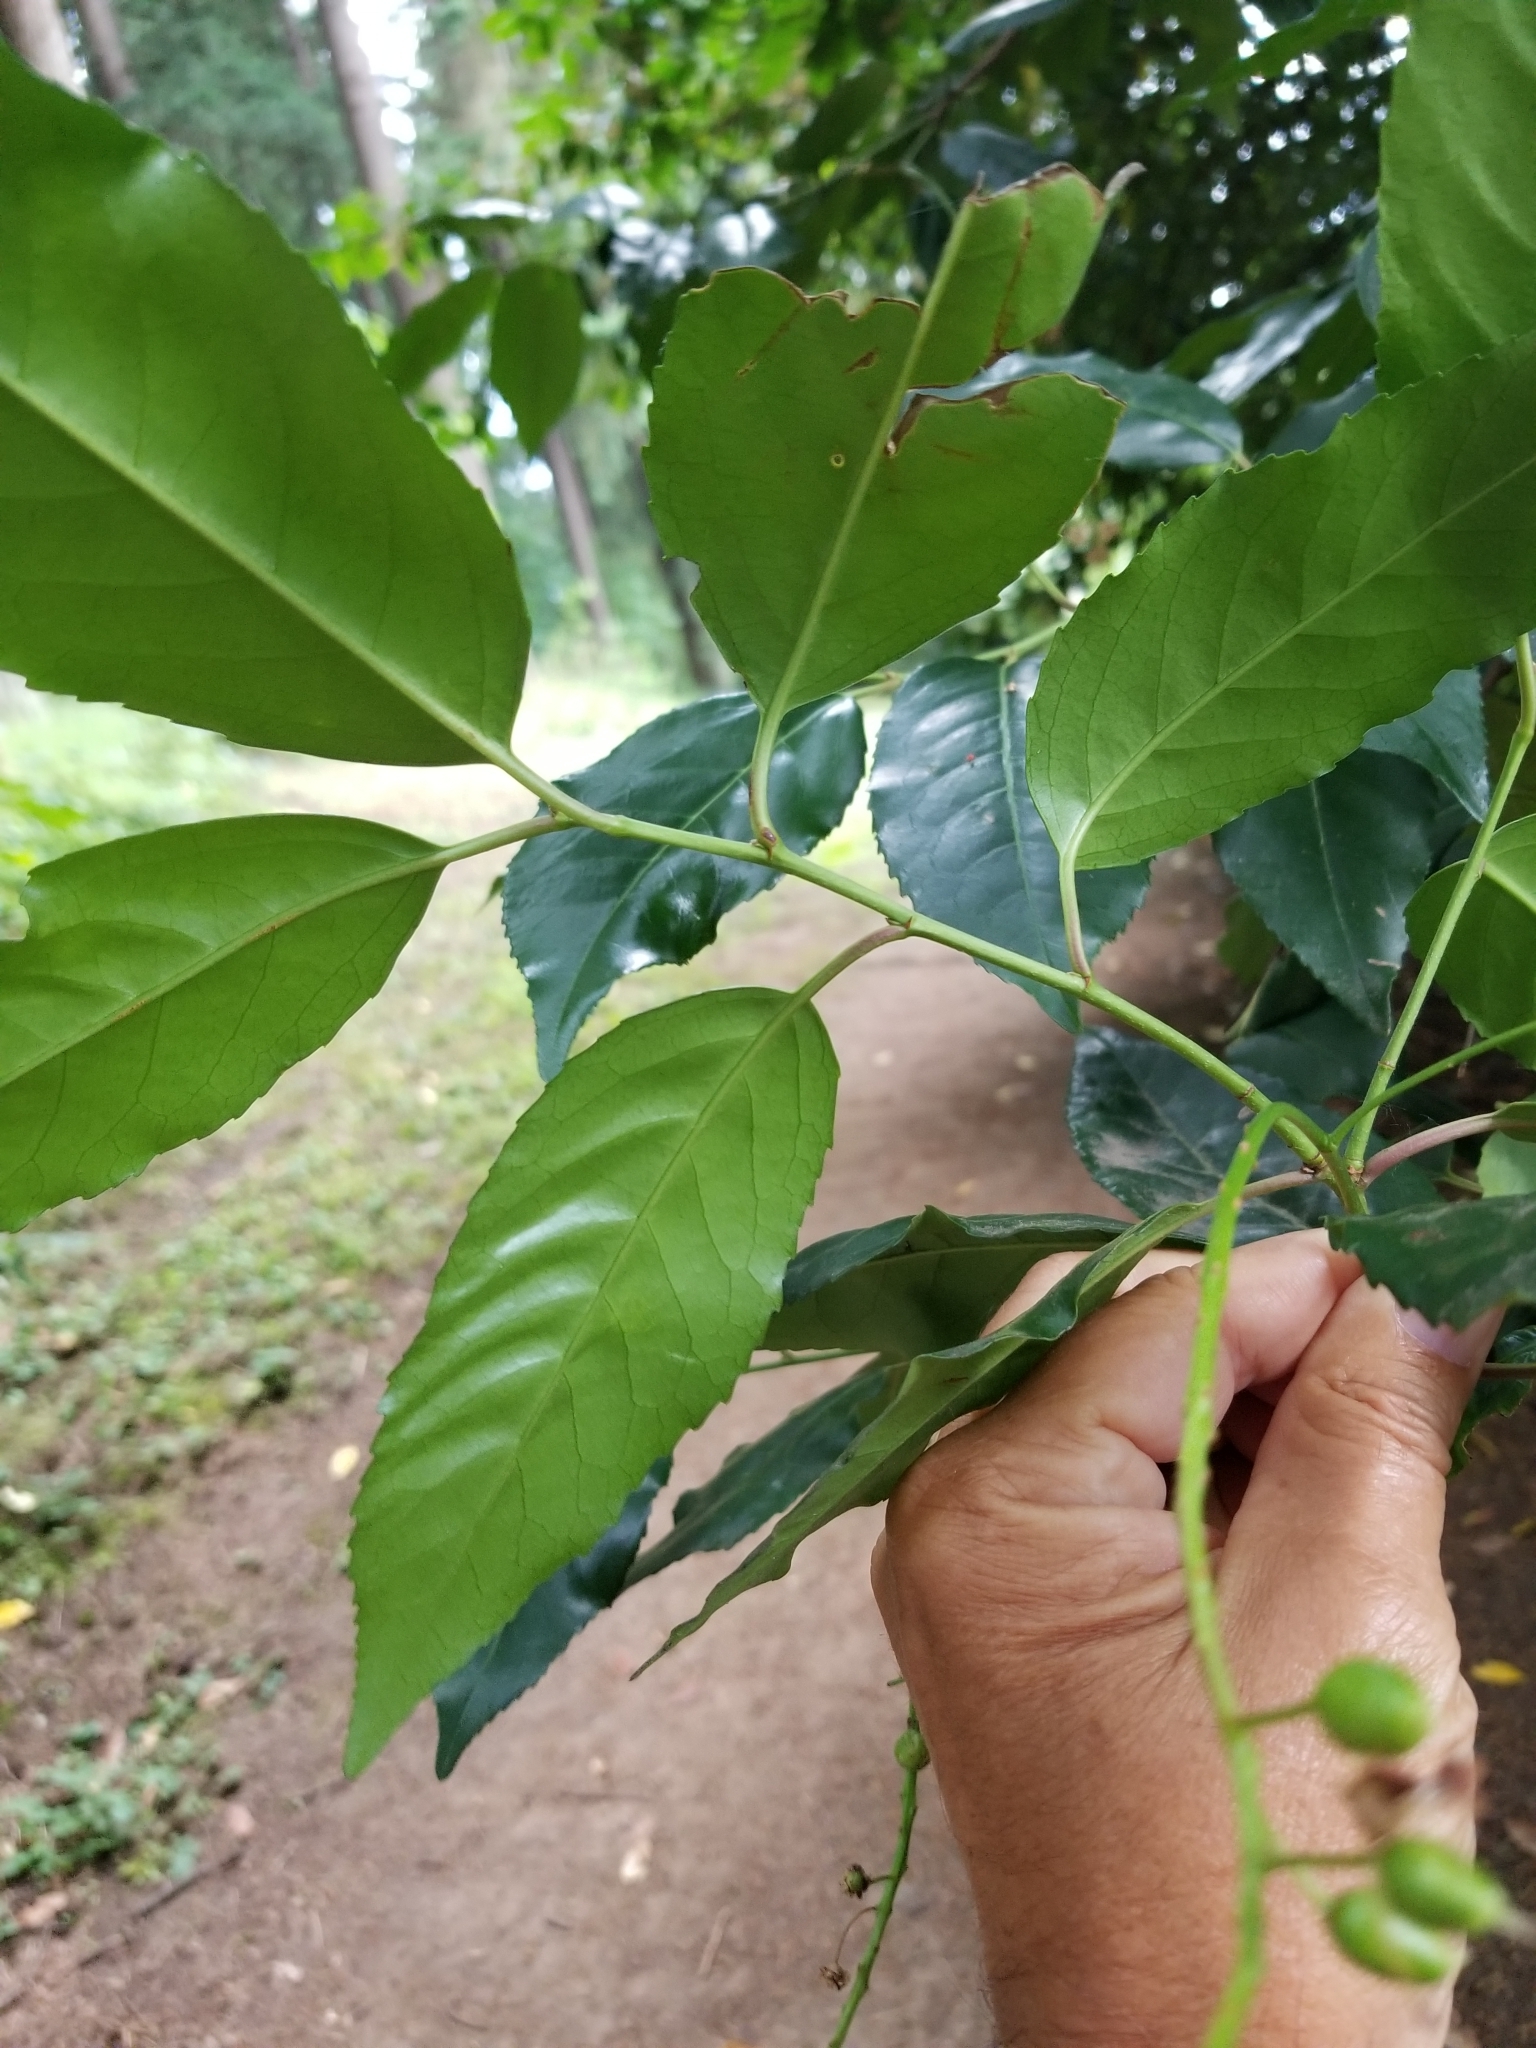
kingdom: Plantae
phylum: Tracheophyta
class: Magnoliopsida
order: Rosales
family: Rosaceae
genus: Prunus
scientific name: Prunus lusitanica
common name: Portugal laurel
